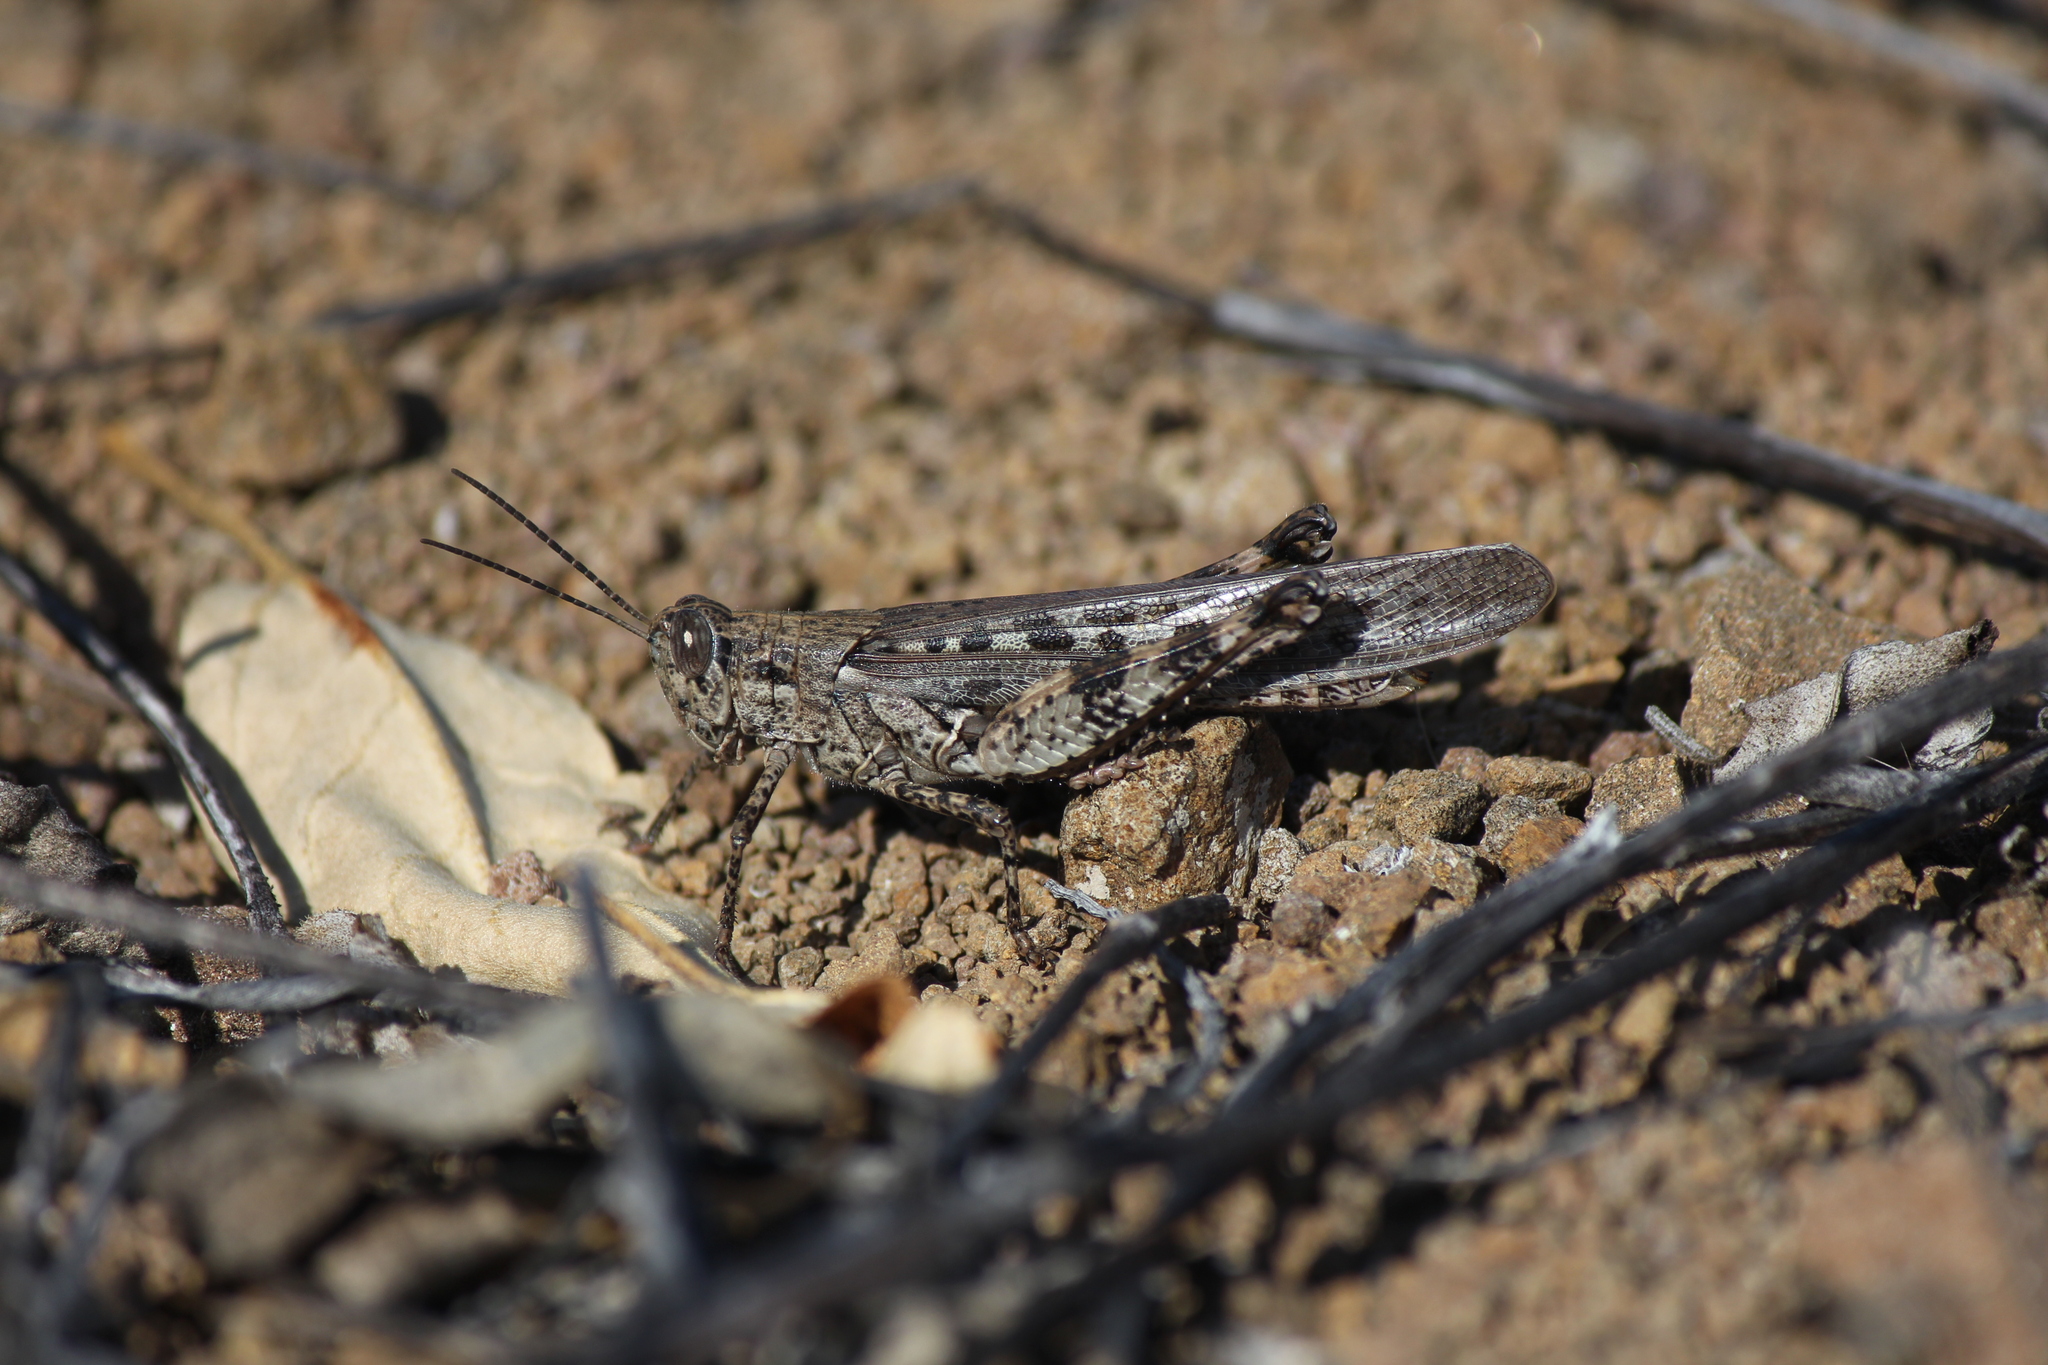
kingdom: Animalia
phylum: Arthropoda
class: Insecta
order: Orthoptera
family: Acrididae
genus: Schistocerca
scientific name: Schistocerca literosa
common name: Small painted locust
